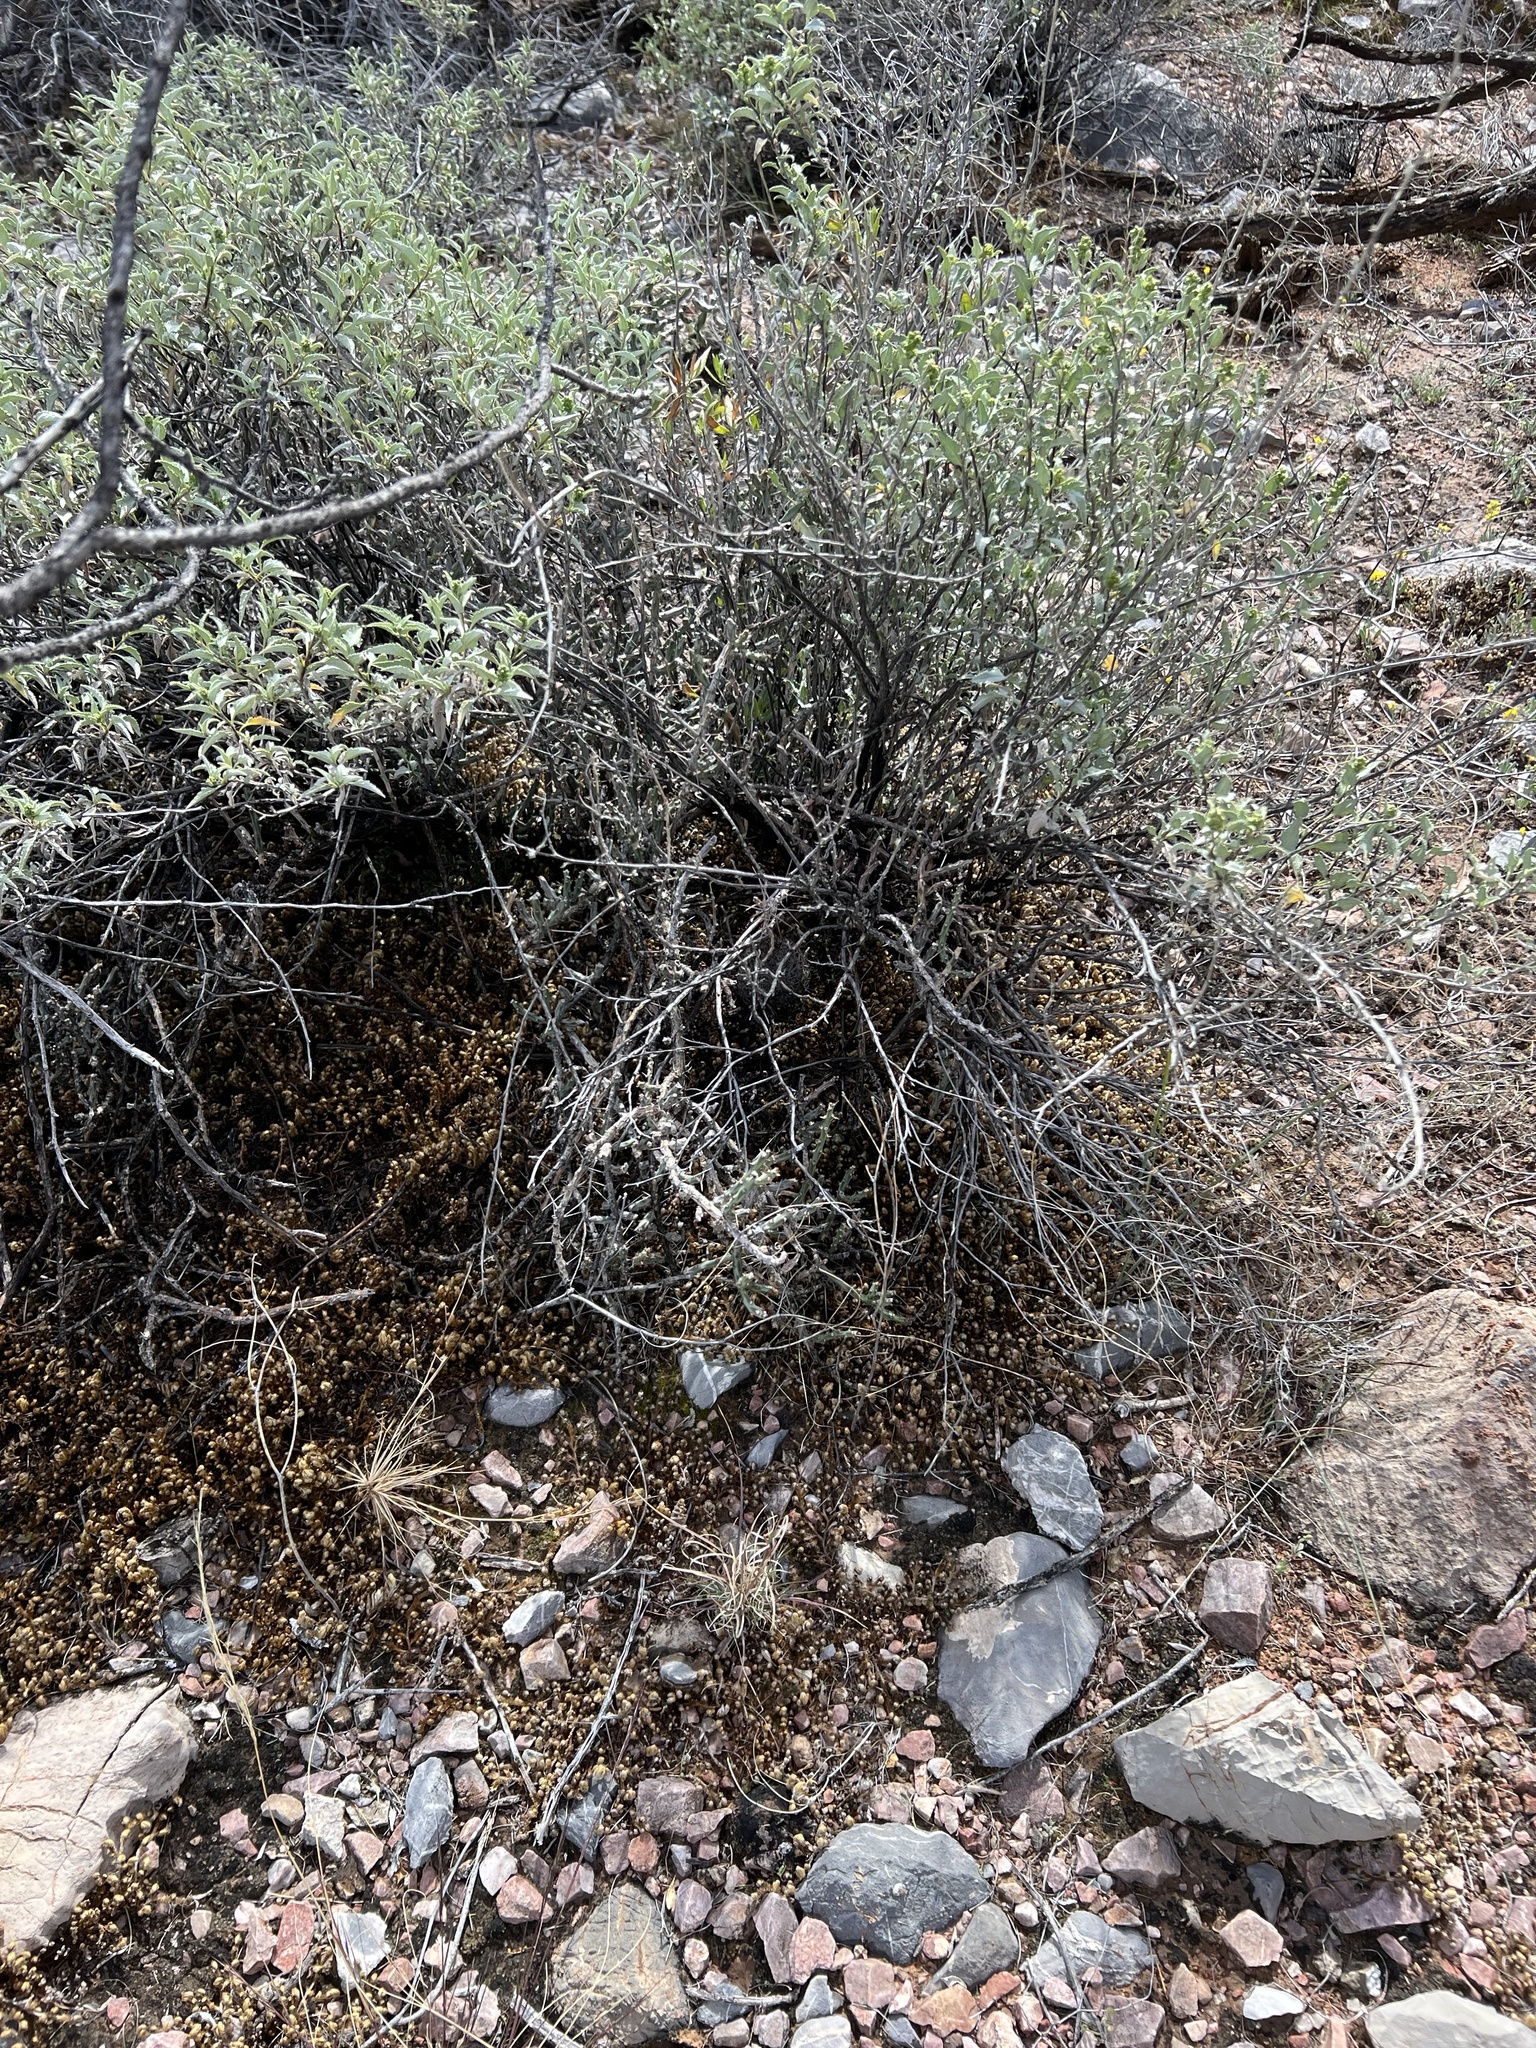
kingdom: Plantae
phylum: Tracheophyta
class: Magnoliopsida
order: Caryophyllales
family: Cactaceae
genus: Cylindropuntia
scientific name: Cylindropuntia leptocaulis
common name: Christmas cactus
